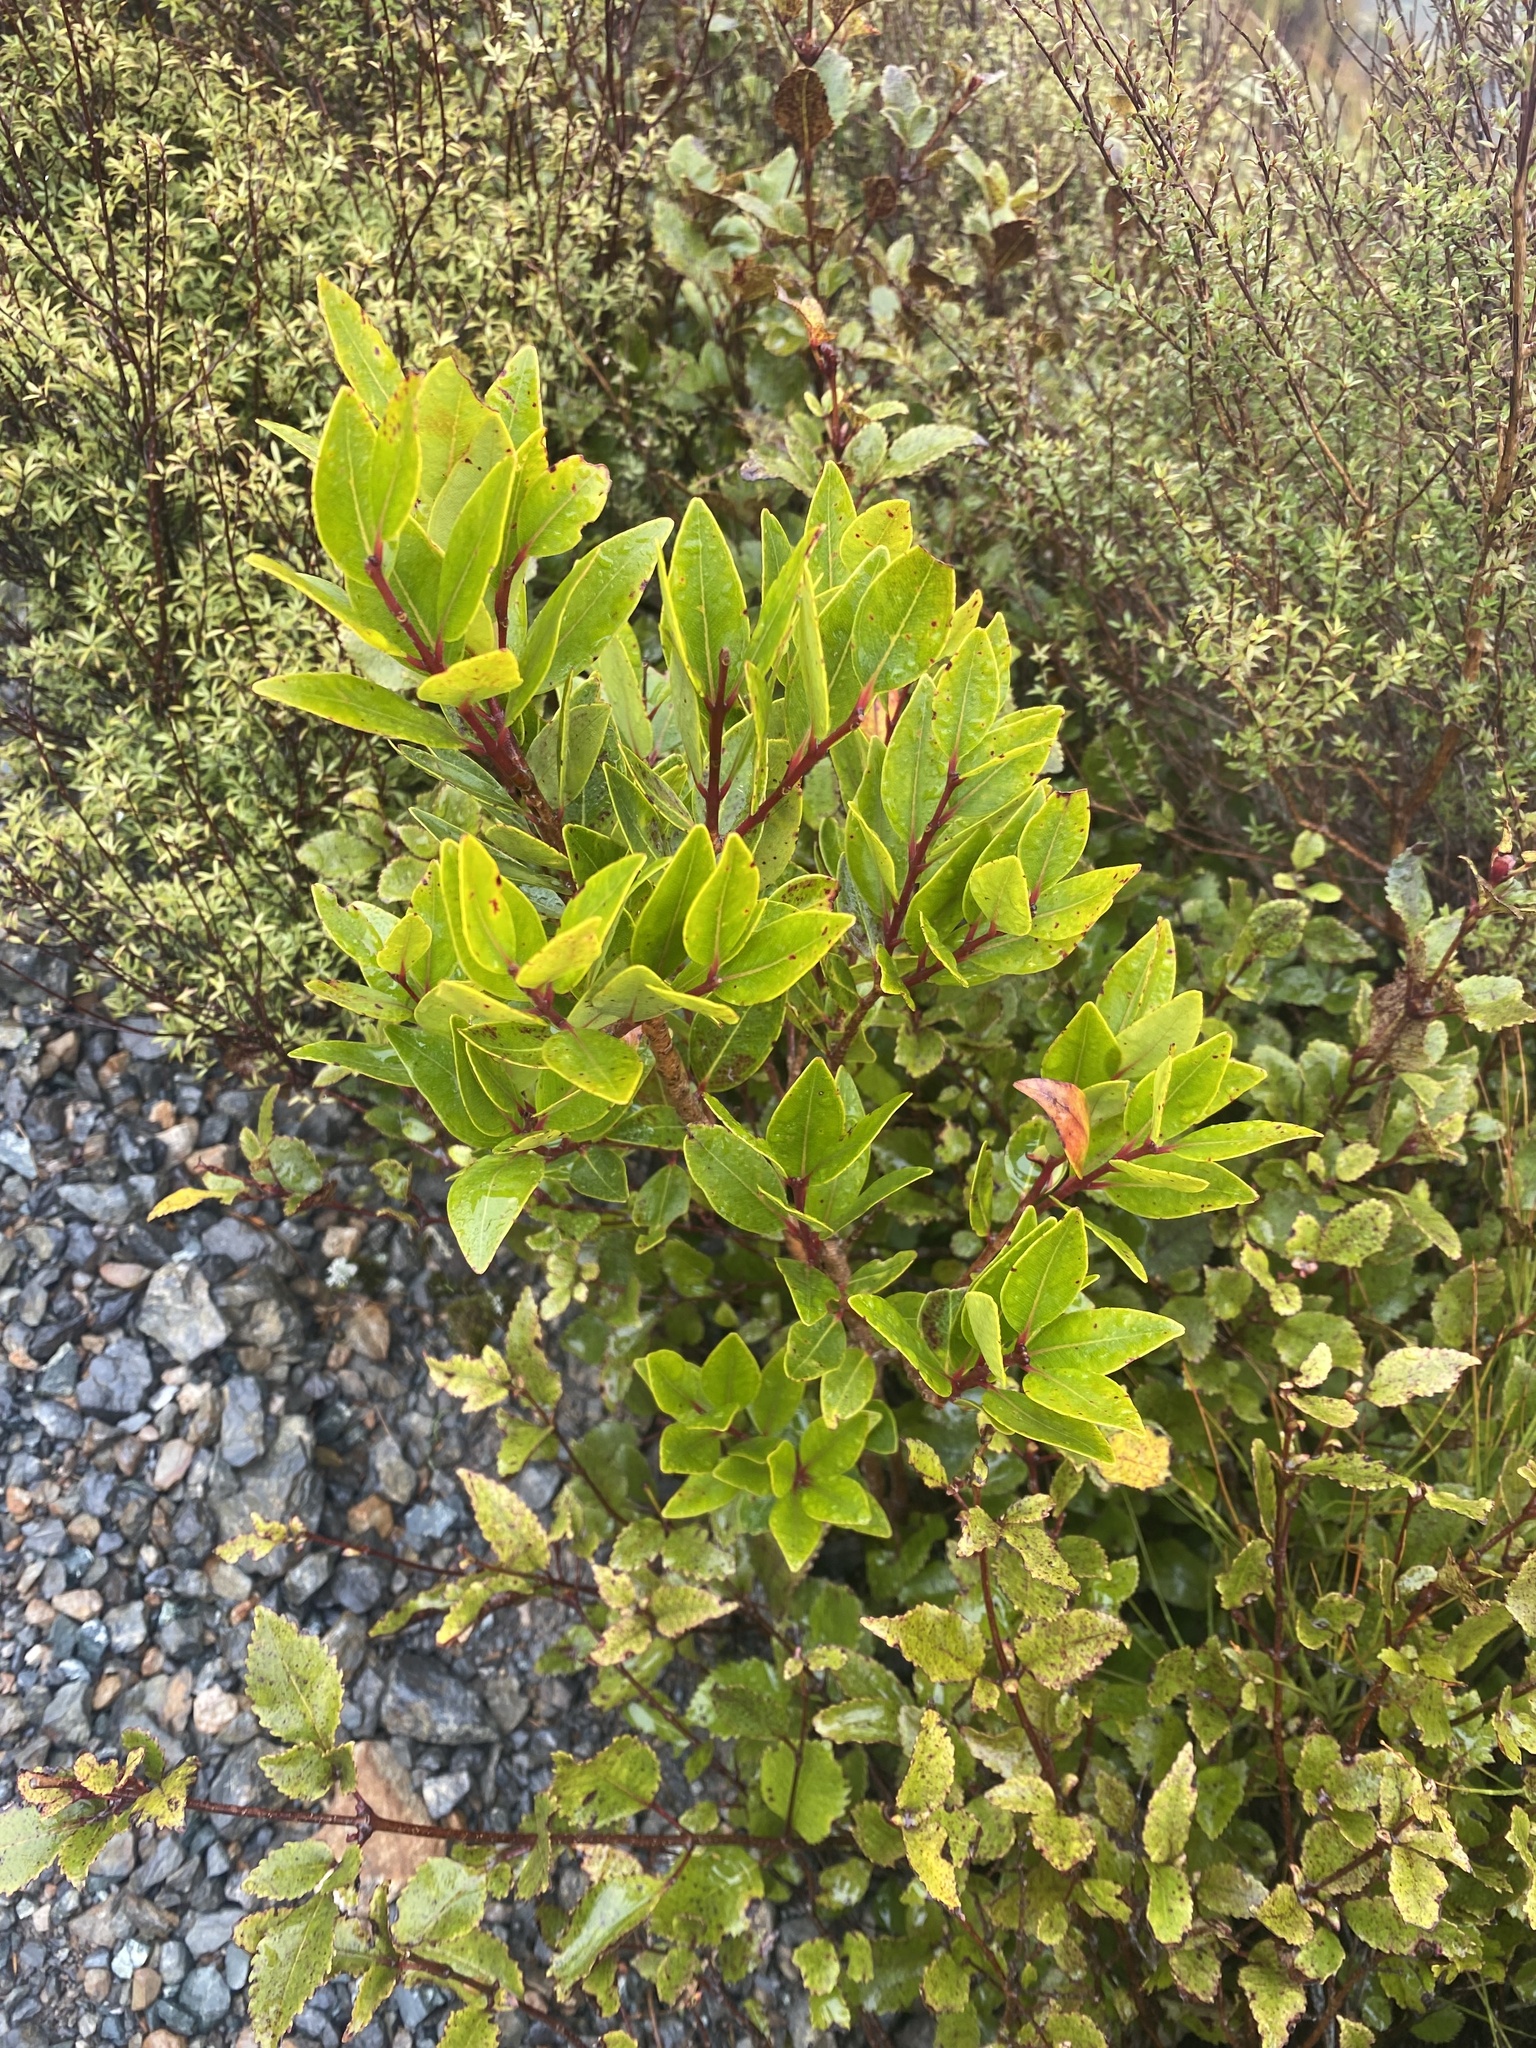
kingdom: Plantae
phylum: Tracheophyta
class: Magnoliopsida
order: Myrtales
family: Myrtaceae
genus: Metrosideros
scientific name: Metrosideros robusta
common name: Northern rata
